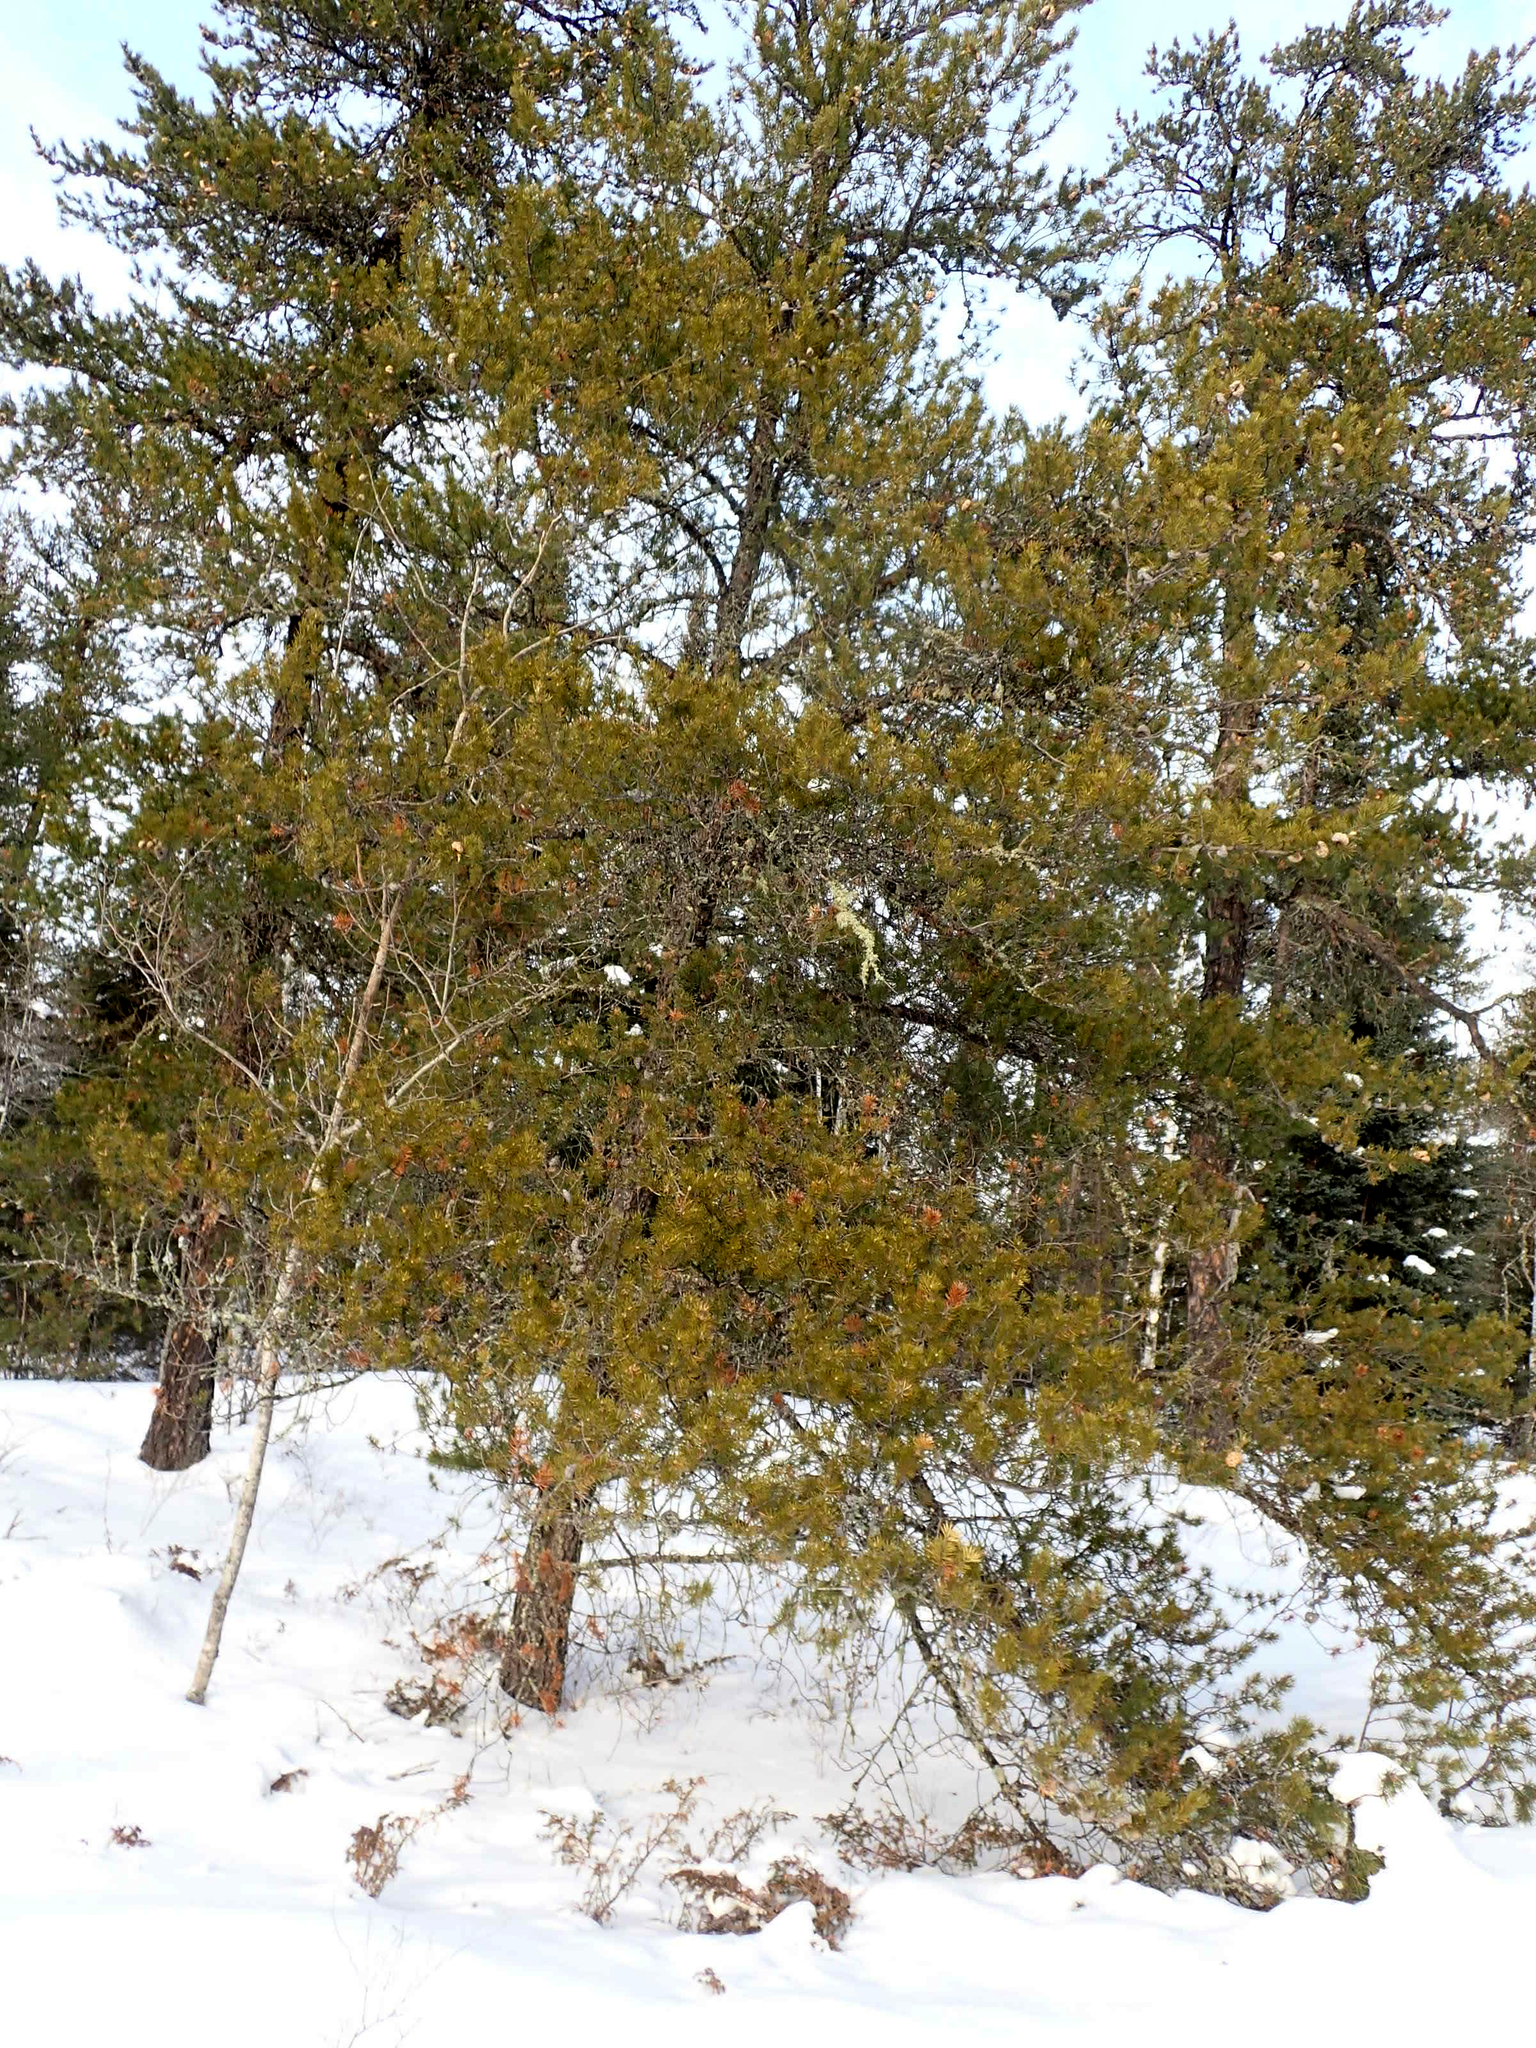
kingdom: Plantae
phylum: Tracheophyta
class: Pinopsida
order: Pinales
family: Pinaceae
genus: Pinus
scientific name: Pinus banksiana
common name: Jack pine
